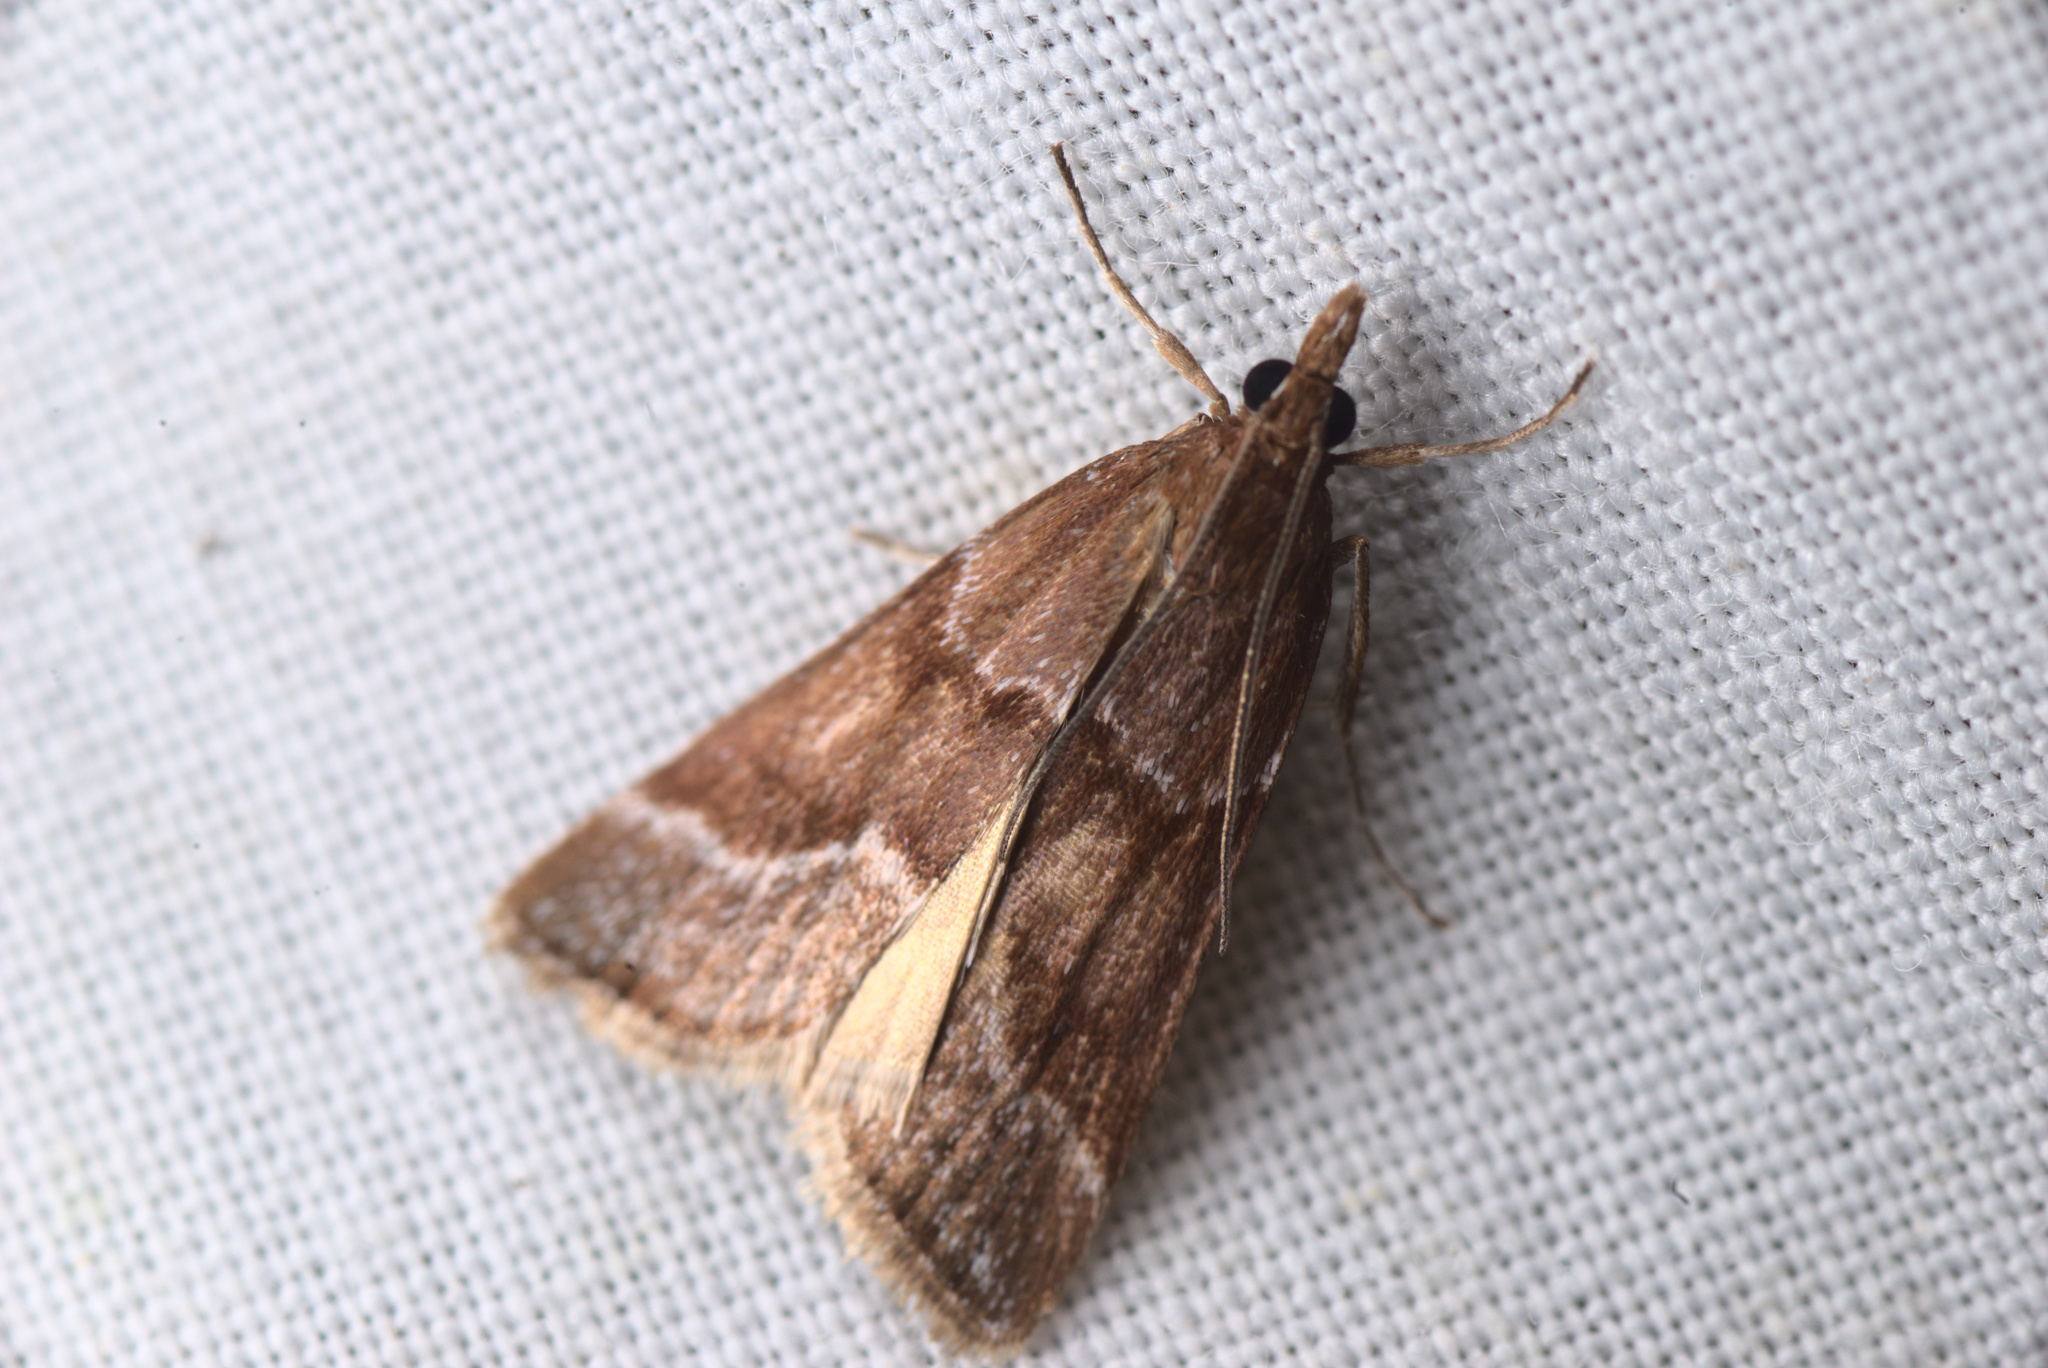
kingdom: Animalia
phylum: Arthropoda
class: Insecta
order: Lepidoptera
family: Crambidae
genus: Eudonia
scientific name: Eudonia feredayi
